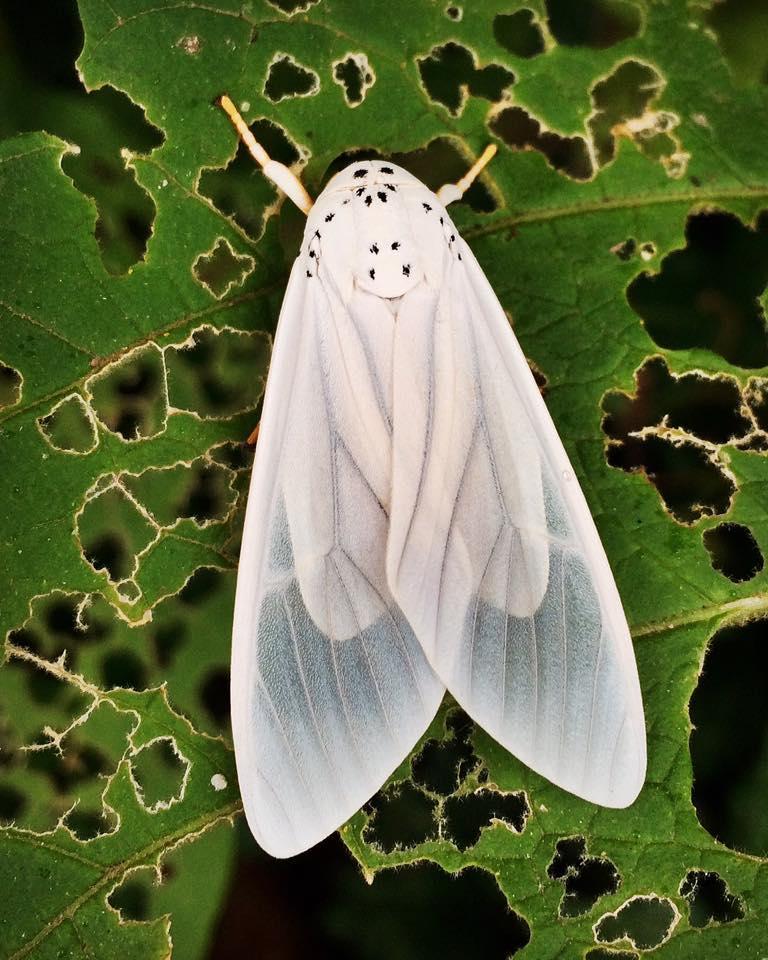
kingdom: Animalia
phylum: Arthropoda
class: Insecta
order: Lepidoptera
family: Erebidae
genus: Amerila
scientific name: Amerila bubo
